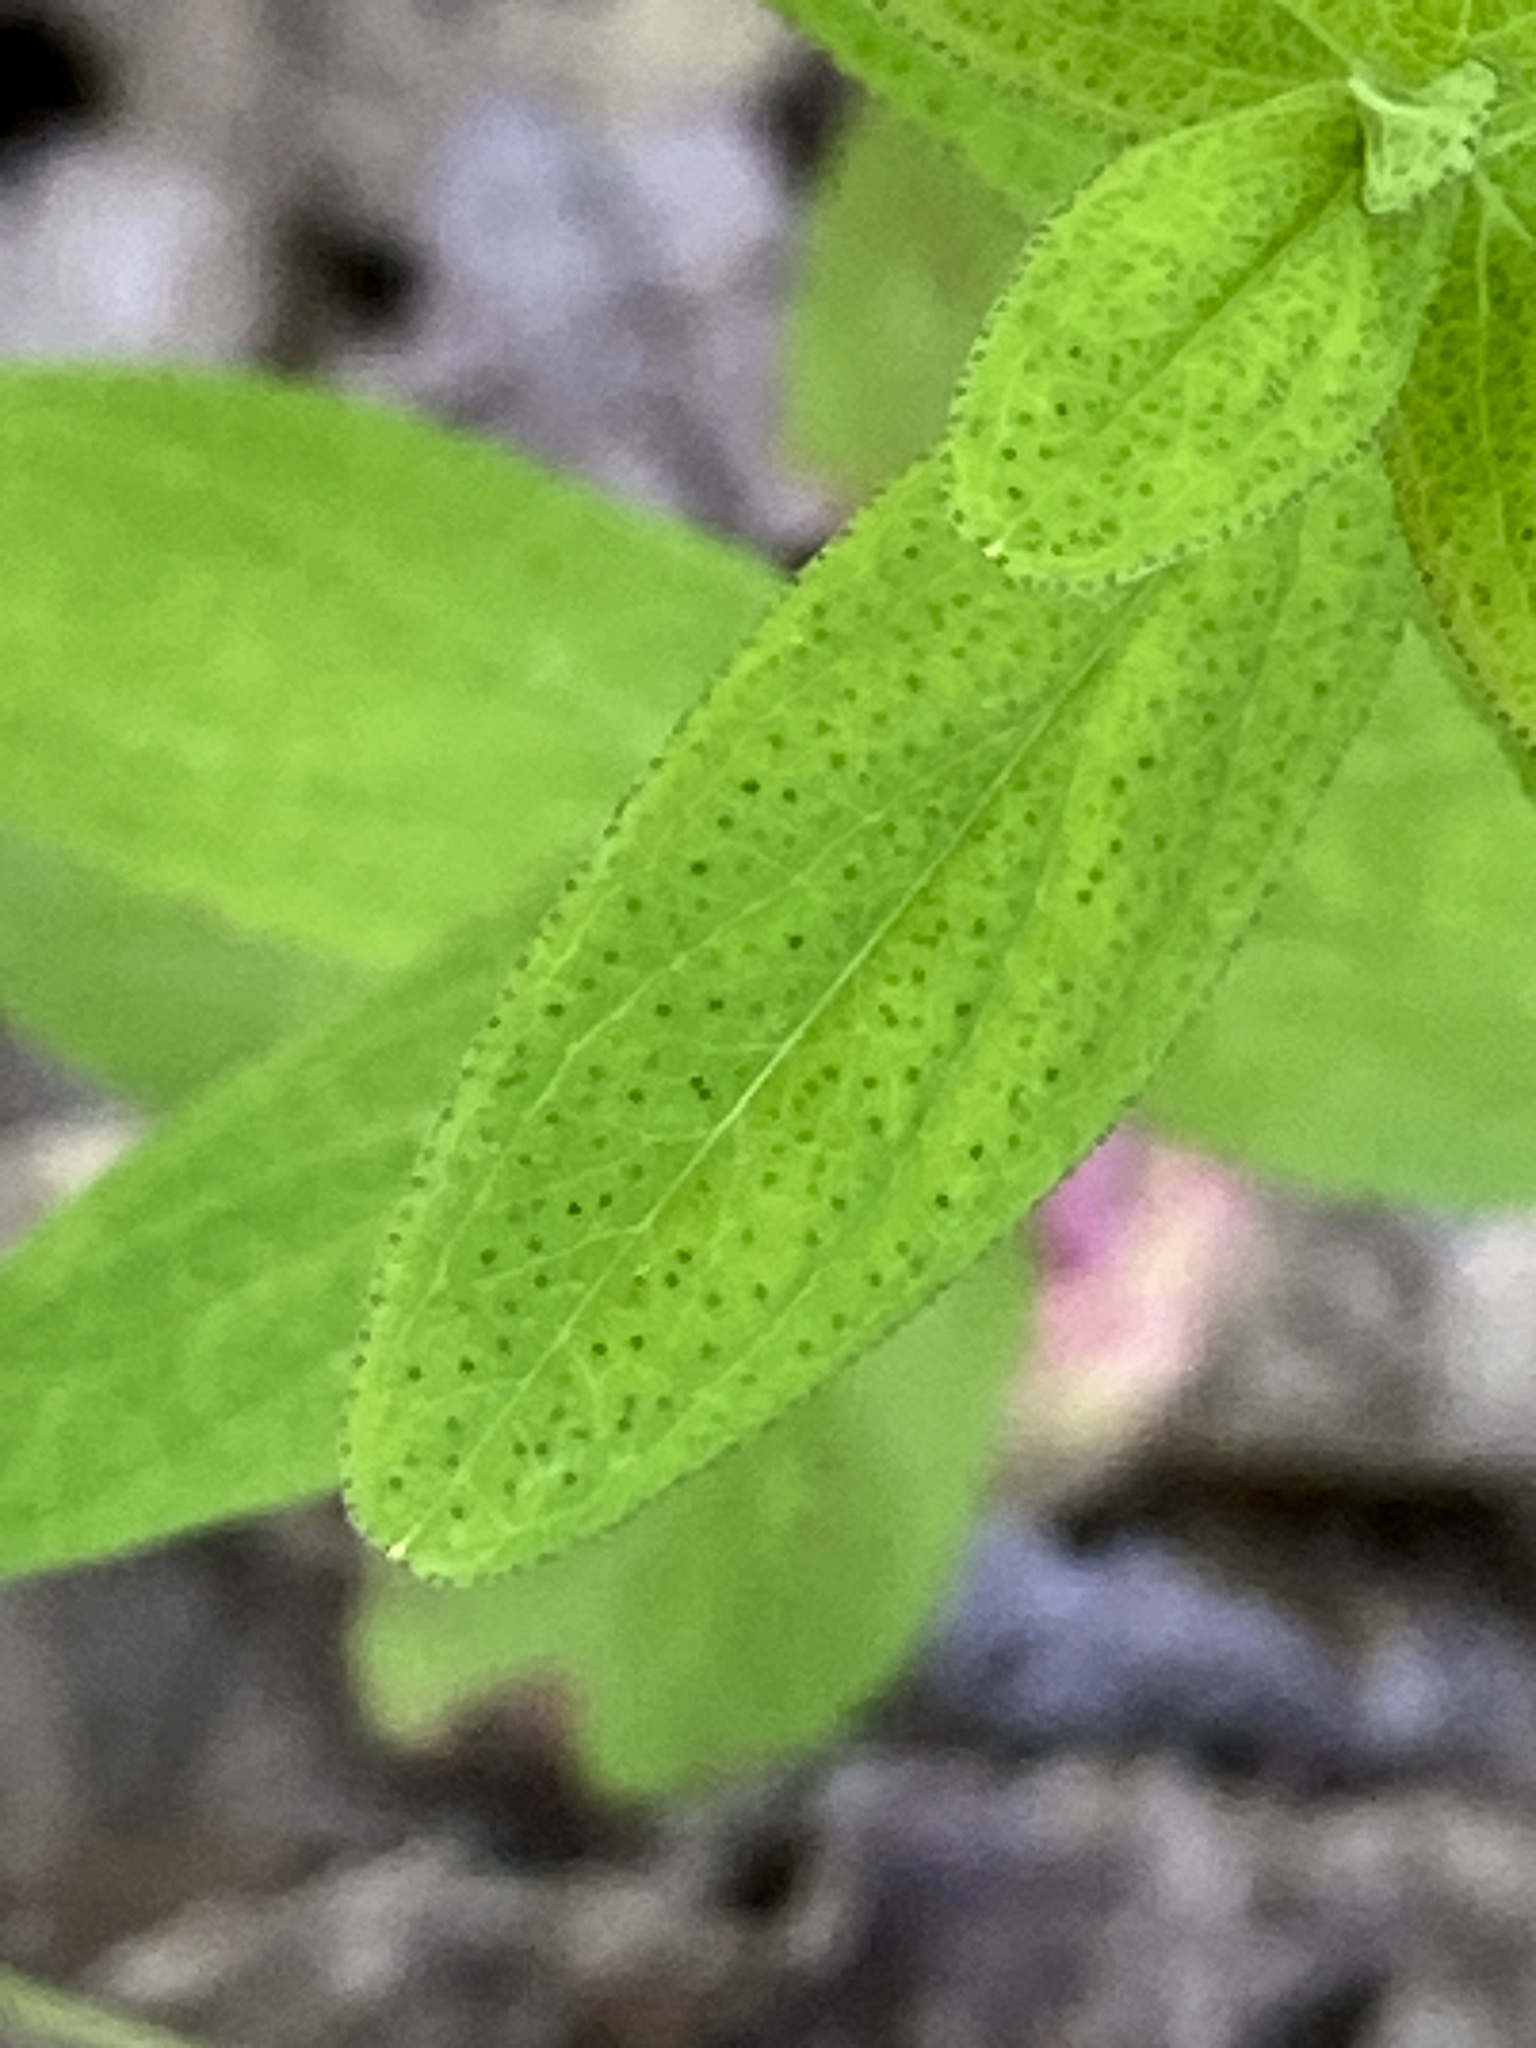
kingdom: Plantae
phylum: Tracheophyta
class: Magnoliopsida
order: Malpighiales
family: Hypericaceae
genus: Hypericum
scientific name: Hypericum punctatum
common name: Spotted st. john's-wort
